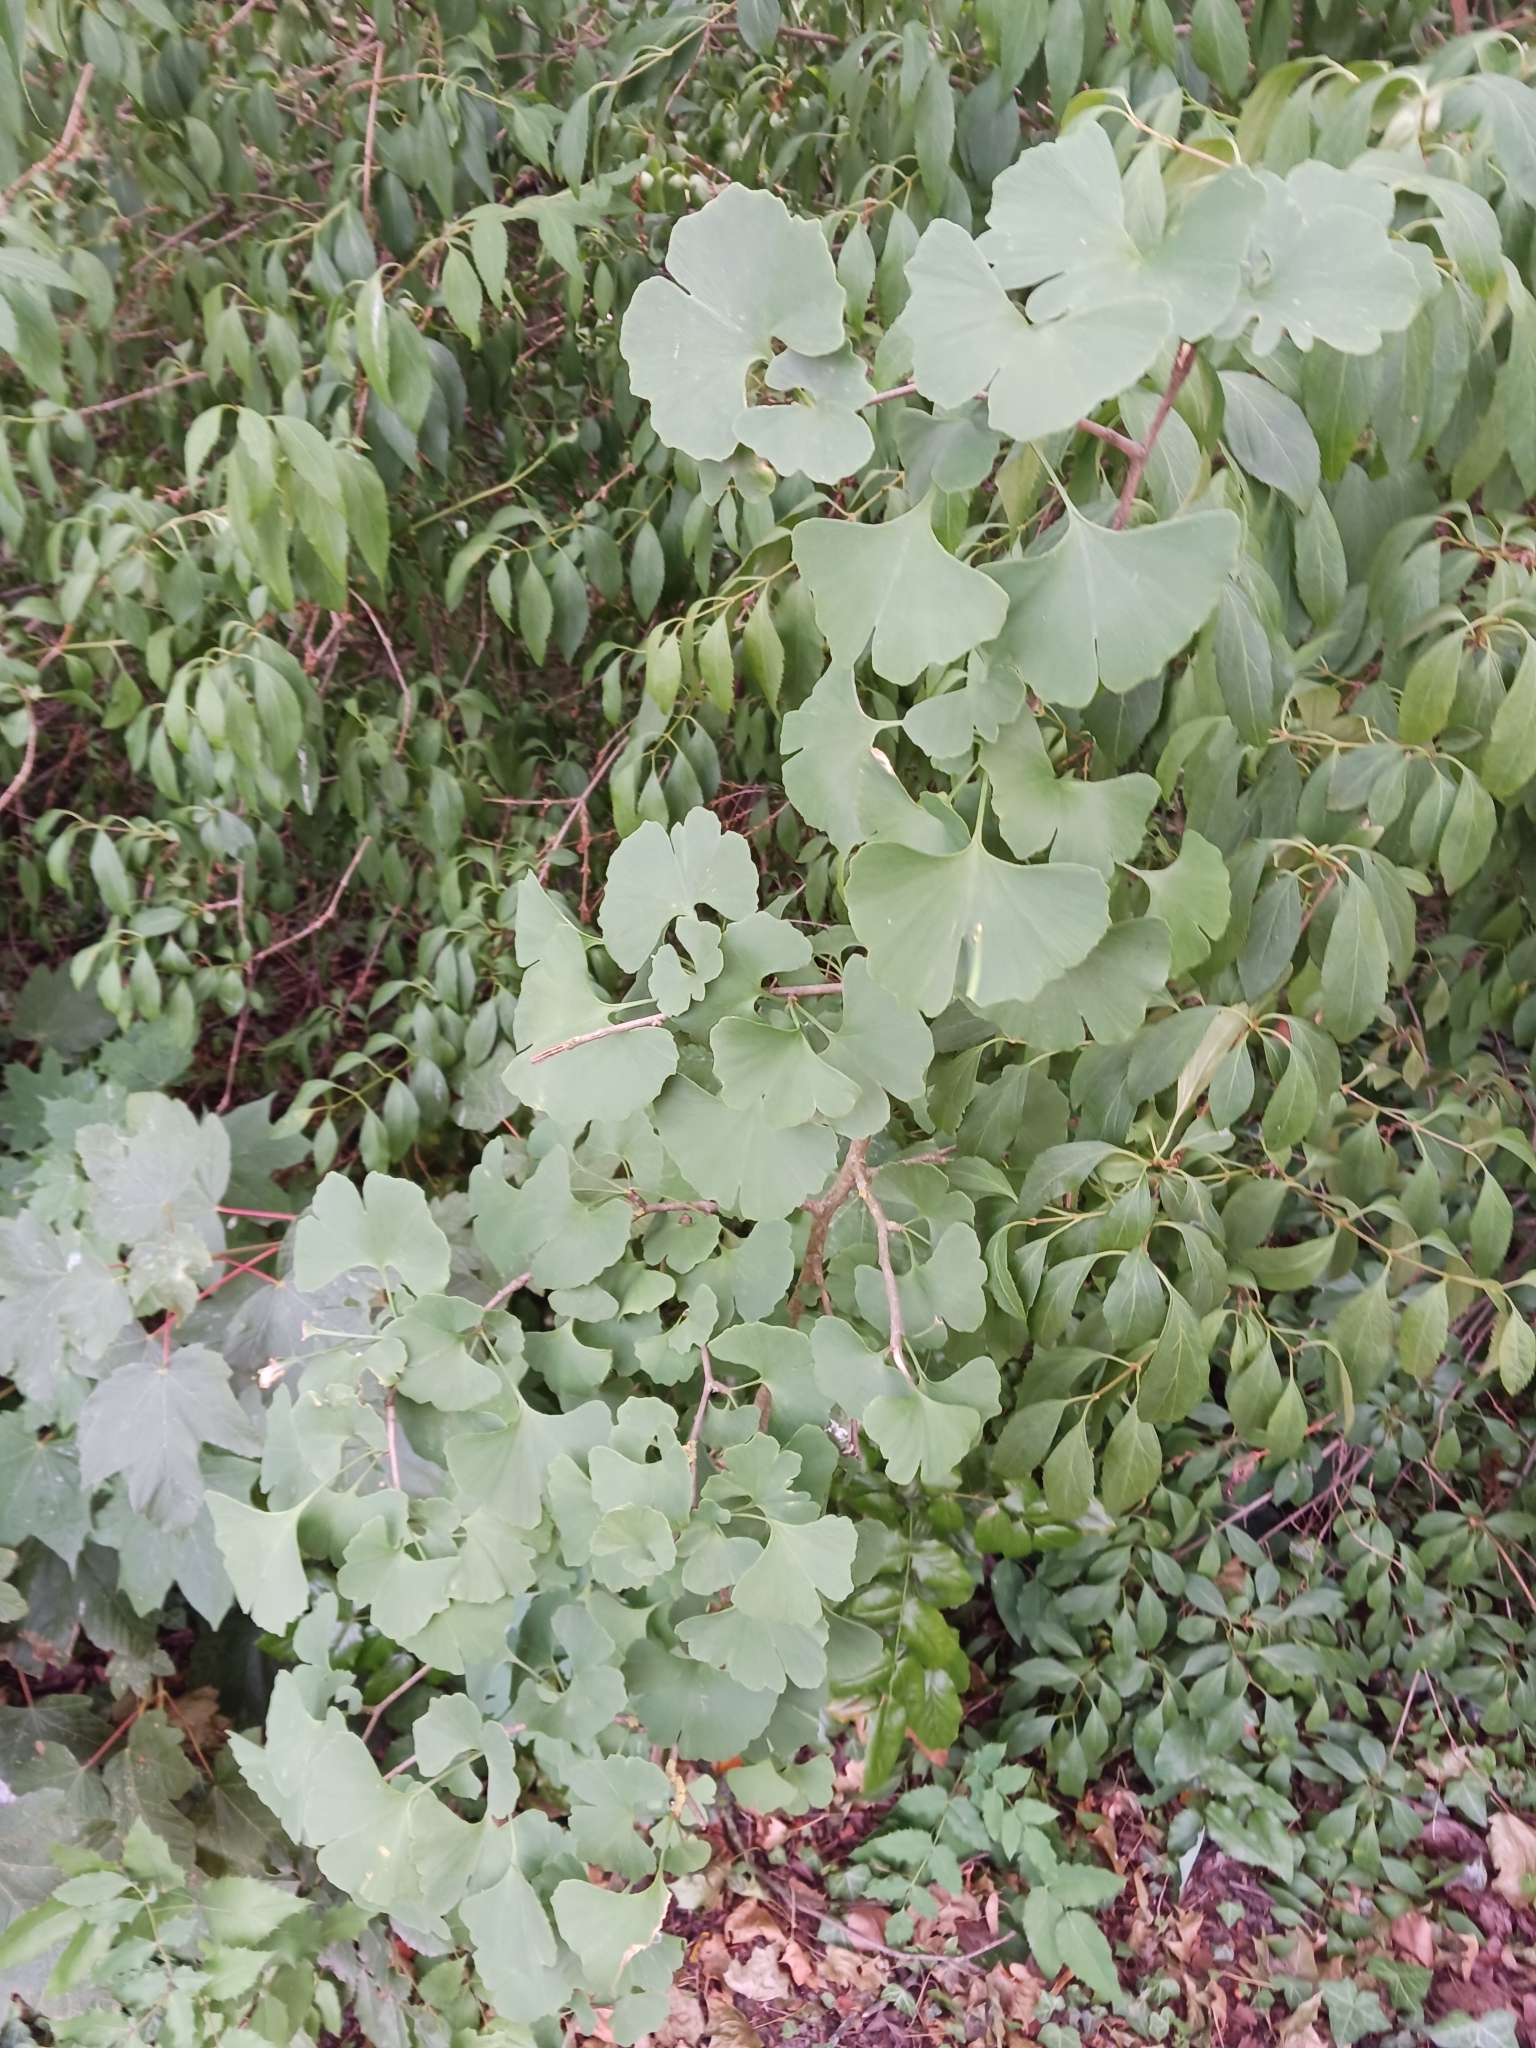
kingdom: Plantae
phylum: Tracheophyta
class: Ginkgoopsida
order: Ginkgoales
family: Ginkgoaceae
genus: Ginkgo
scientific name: Ginkgo biloba
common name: Ginkgo
